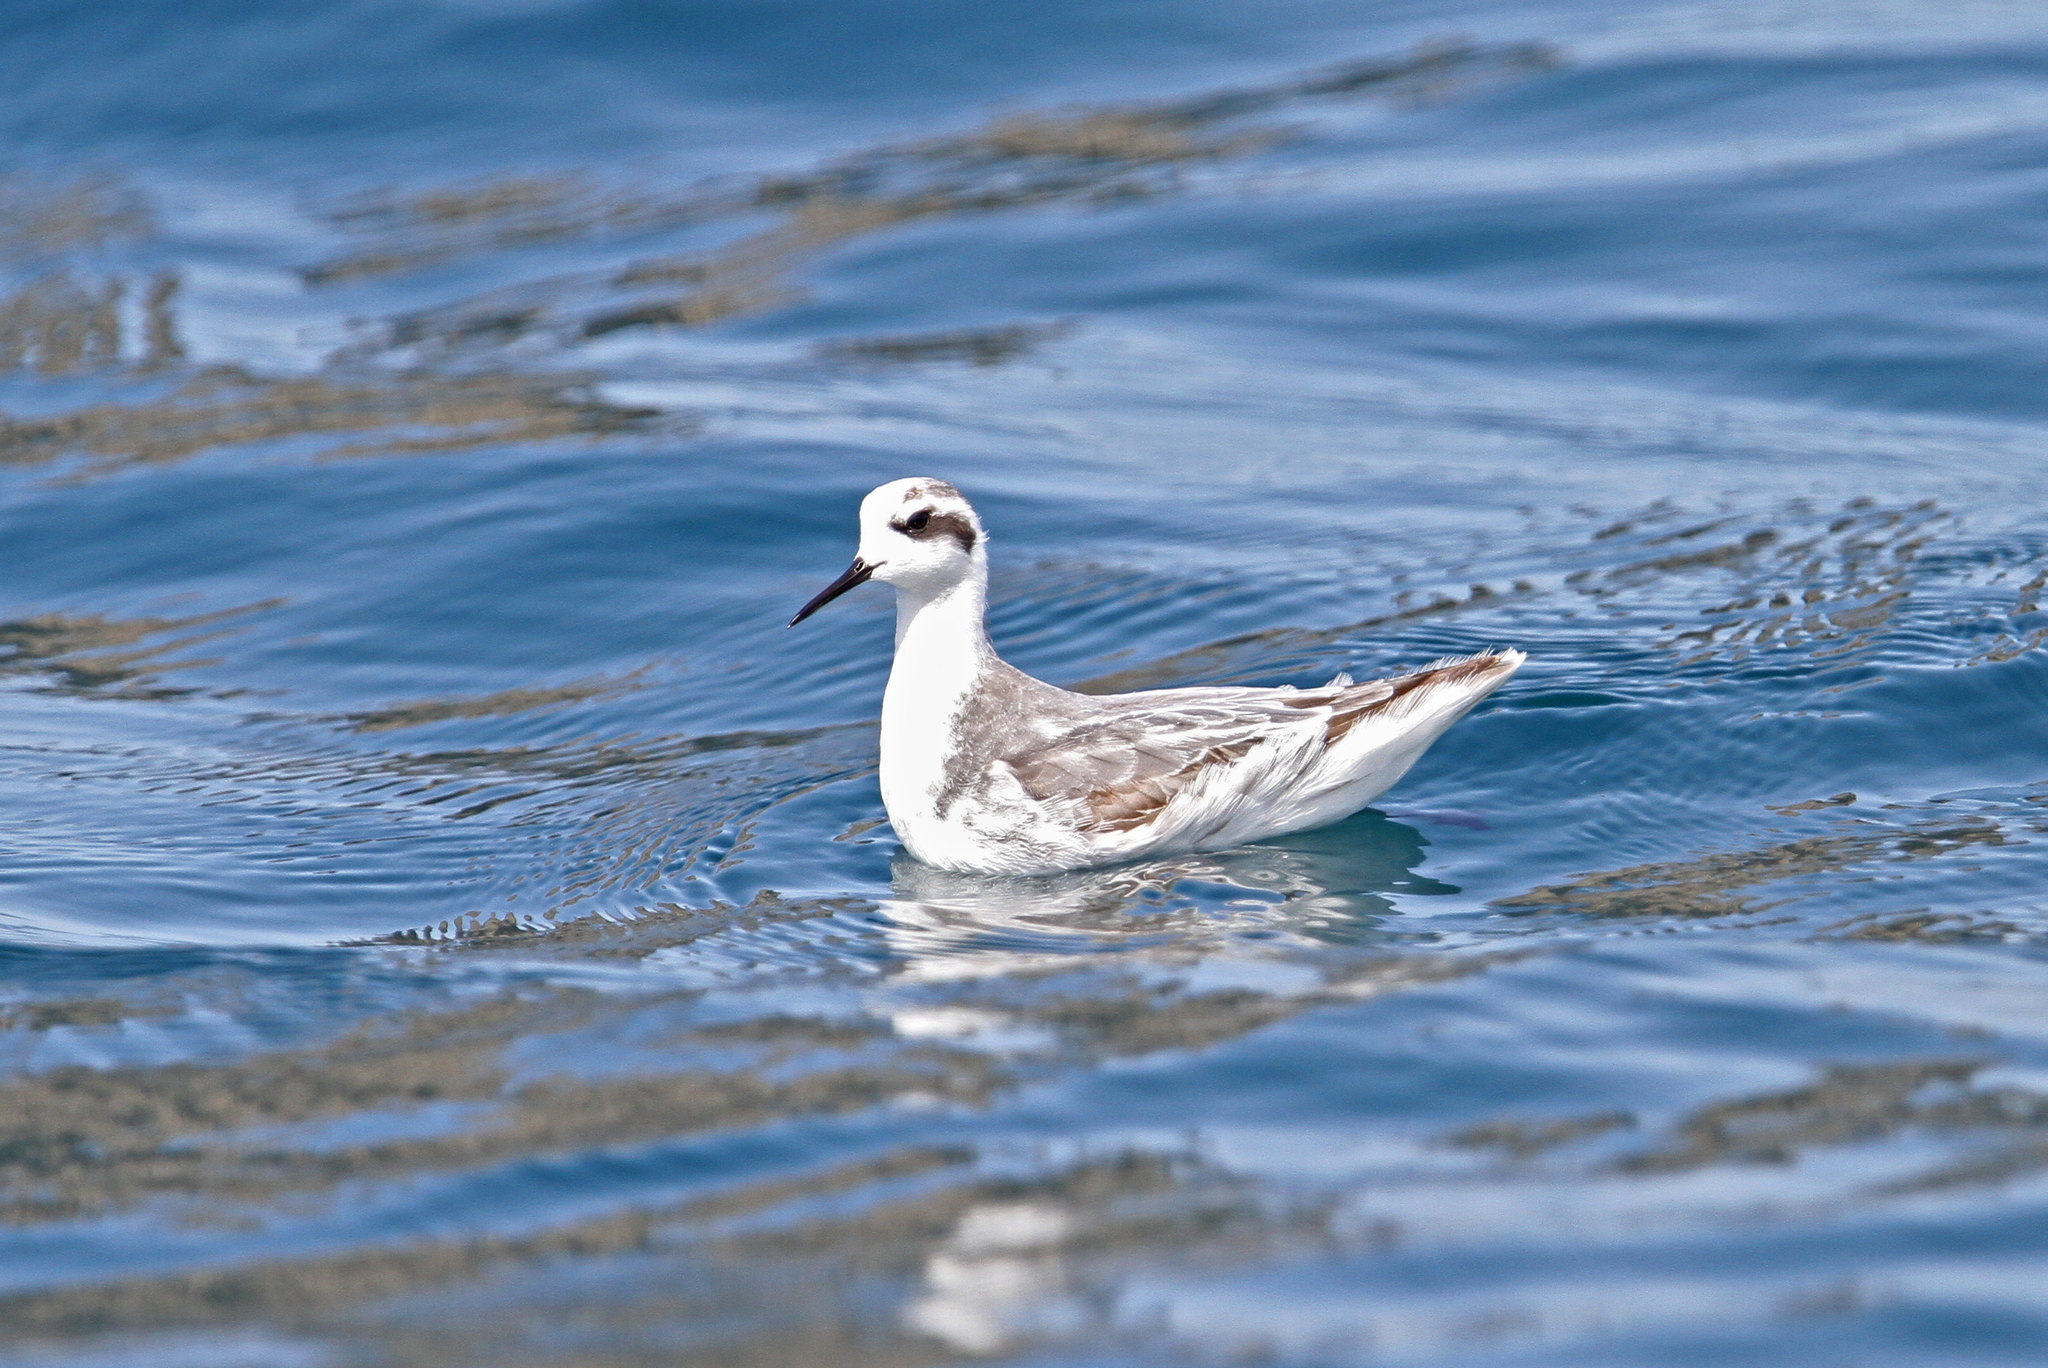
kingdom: Animalia
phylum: Chordata
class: Aves
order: Charadriiformes
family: Scolopacidae
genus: Phalaropus
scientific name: Phalaropus lobatus
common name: Red-necked phalarope
